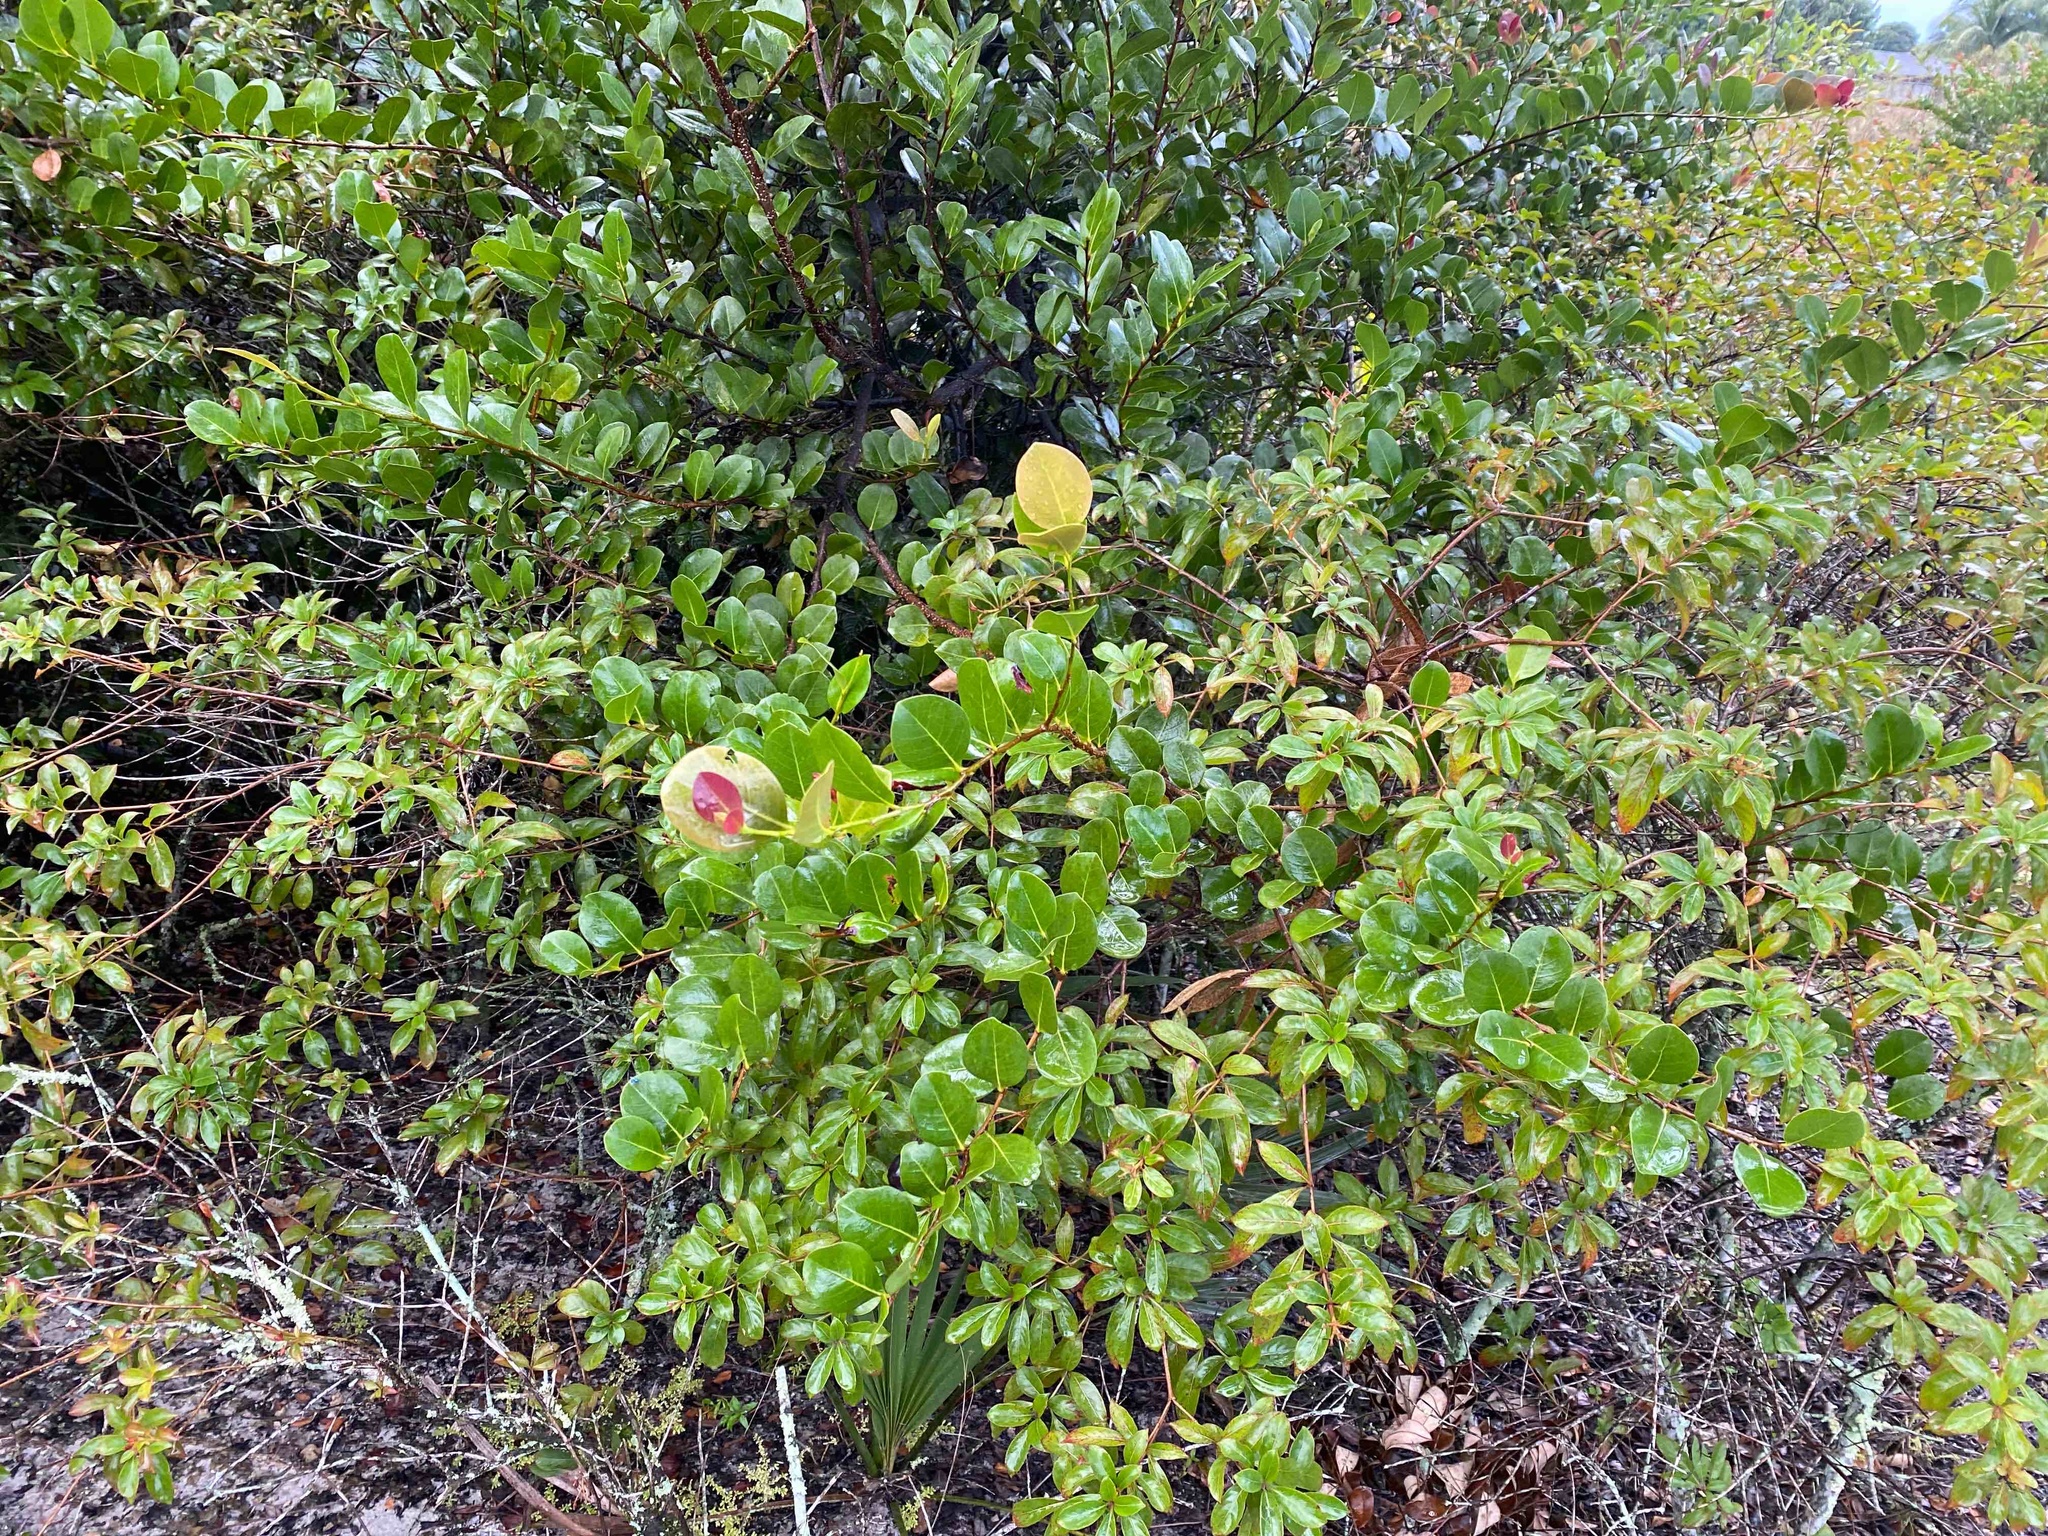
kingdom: Plantae
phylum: Tracheophyta
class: Magnoliopsida
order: Malpighiales
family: Chrysobalanaceae
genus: Chrysobalanus
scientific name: Chrysobalanus icaco
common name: Coco plum
